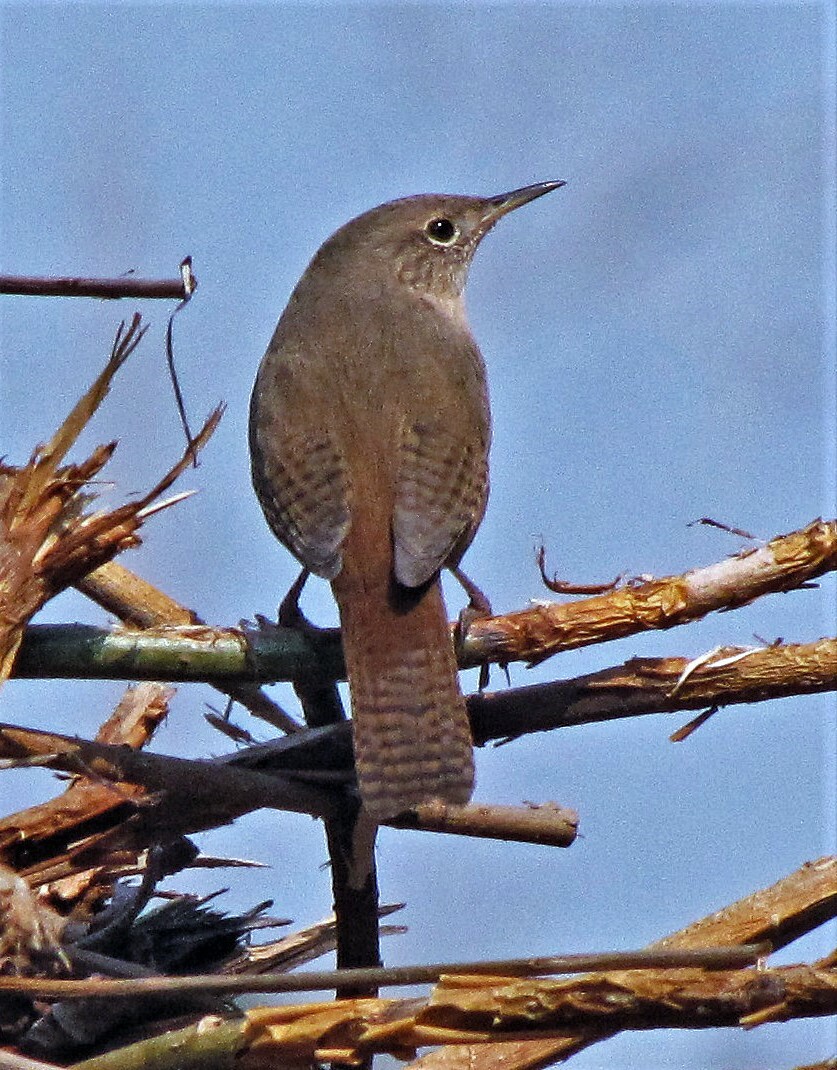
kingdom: Animalia
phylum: Chordata
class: Aves
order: Passeriformes
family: Troglodytidae
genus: Troglodytes
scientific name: Troglodytes aedon
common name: House wren
